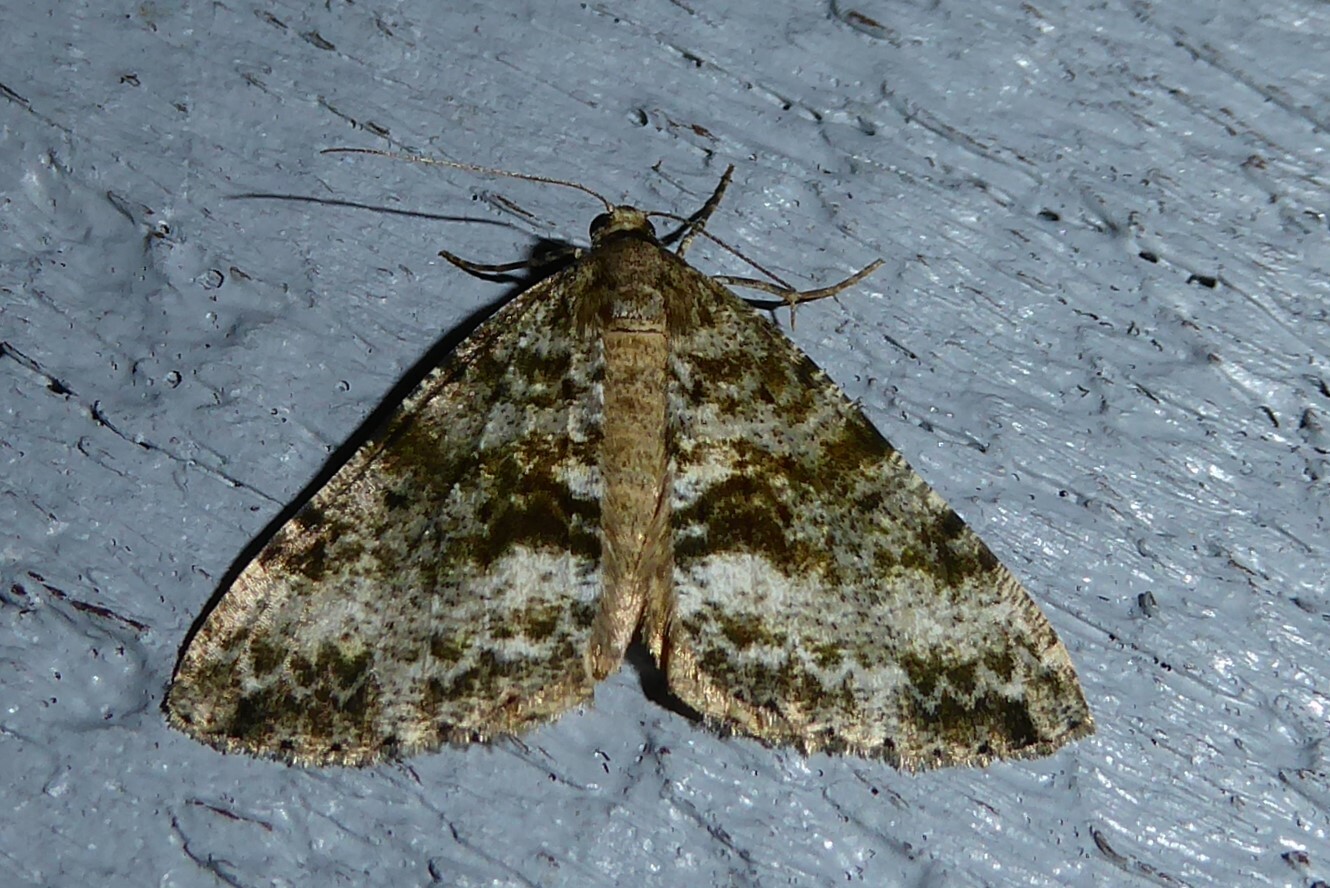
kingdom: Animalia
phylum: Arthropoda
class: Insecta
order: Lepidoptera
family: Geometridae
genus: Pseudocoremia
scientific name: Pseudocoremia lactiflua
